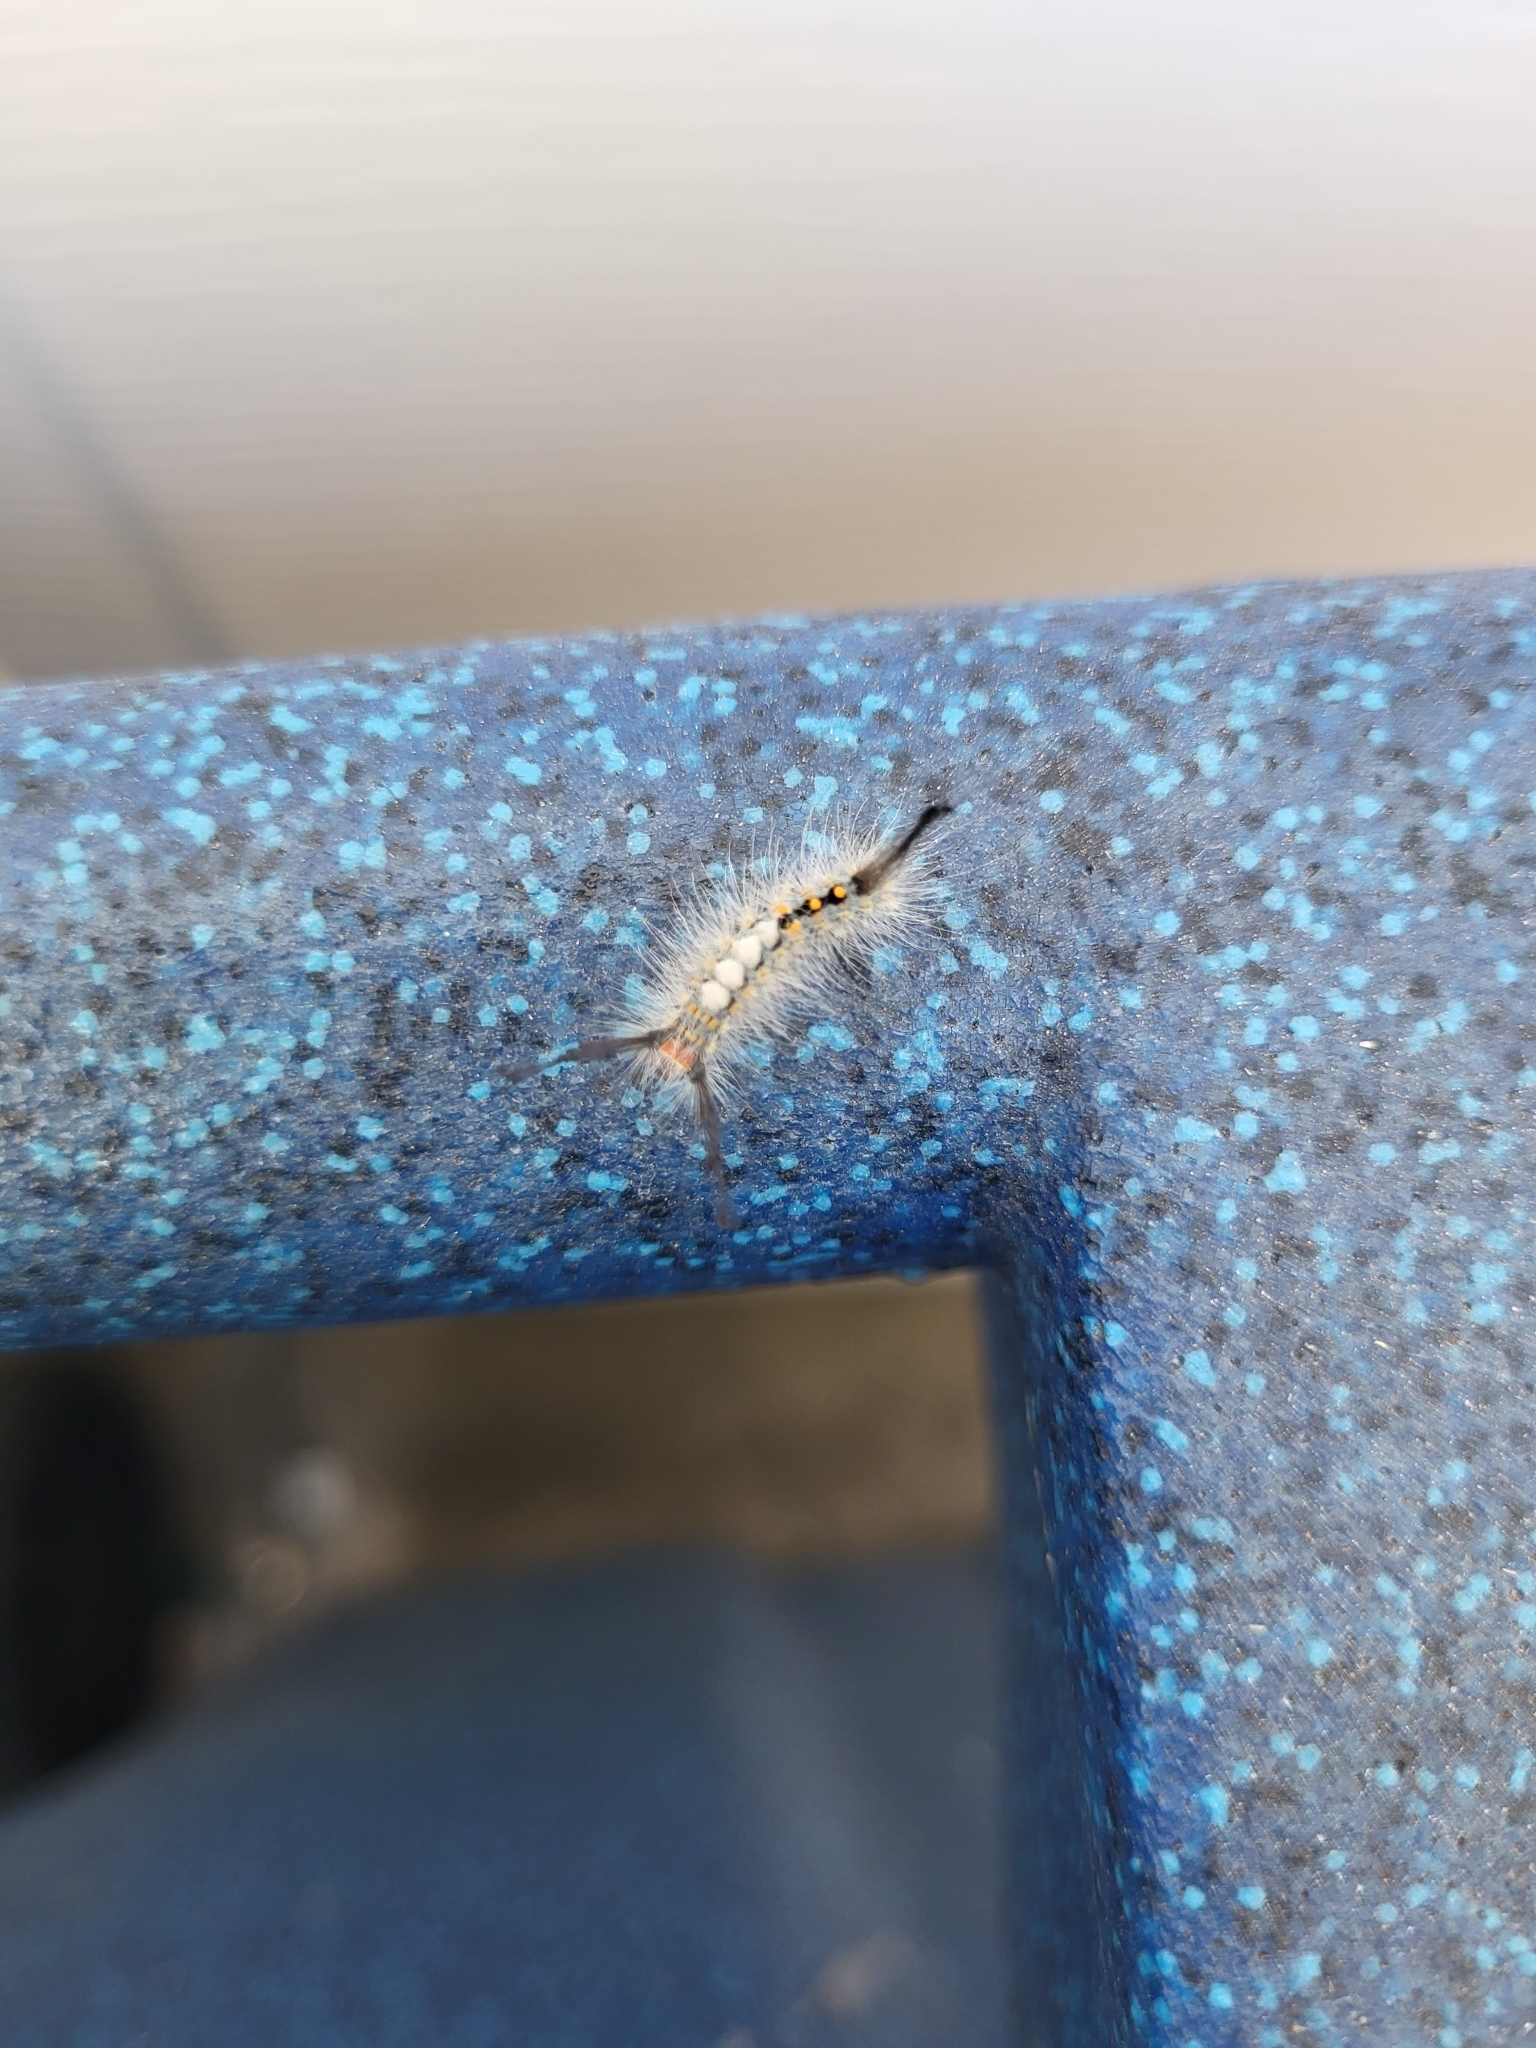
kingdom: Animalia
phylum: Arthropoda
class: Insecta
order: Lepidoptera
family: Erebidae
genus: Orgyia
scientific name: Orgyia detrita
